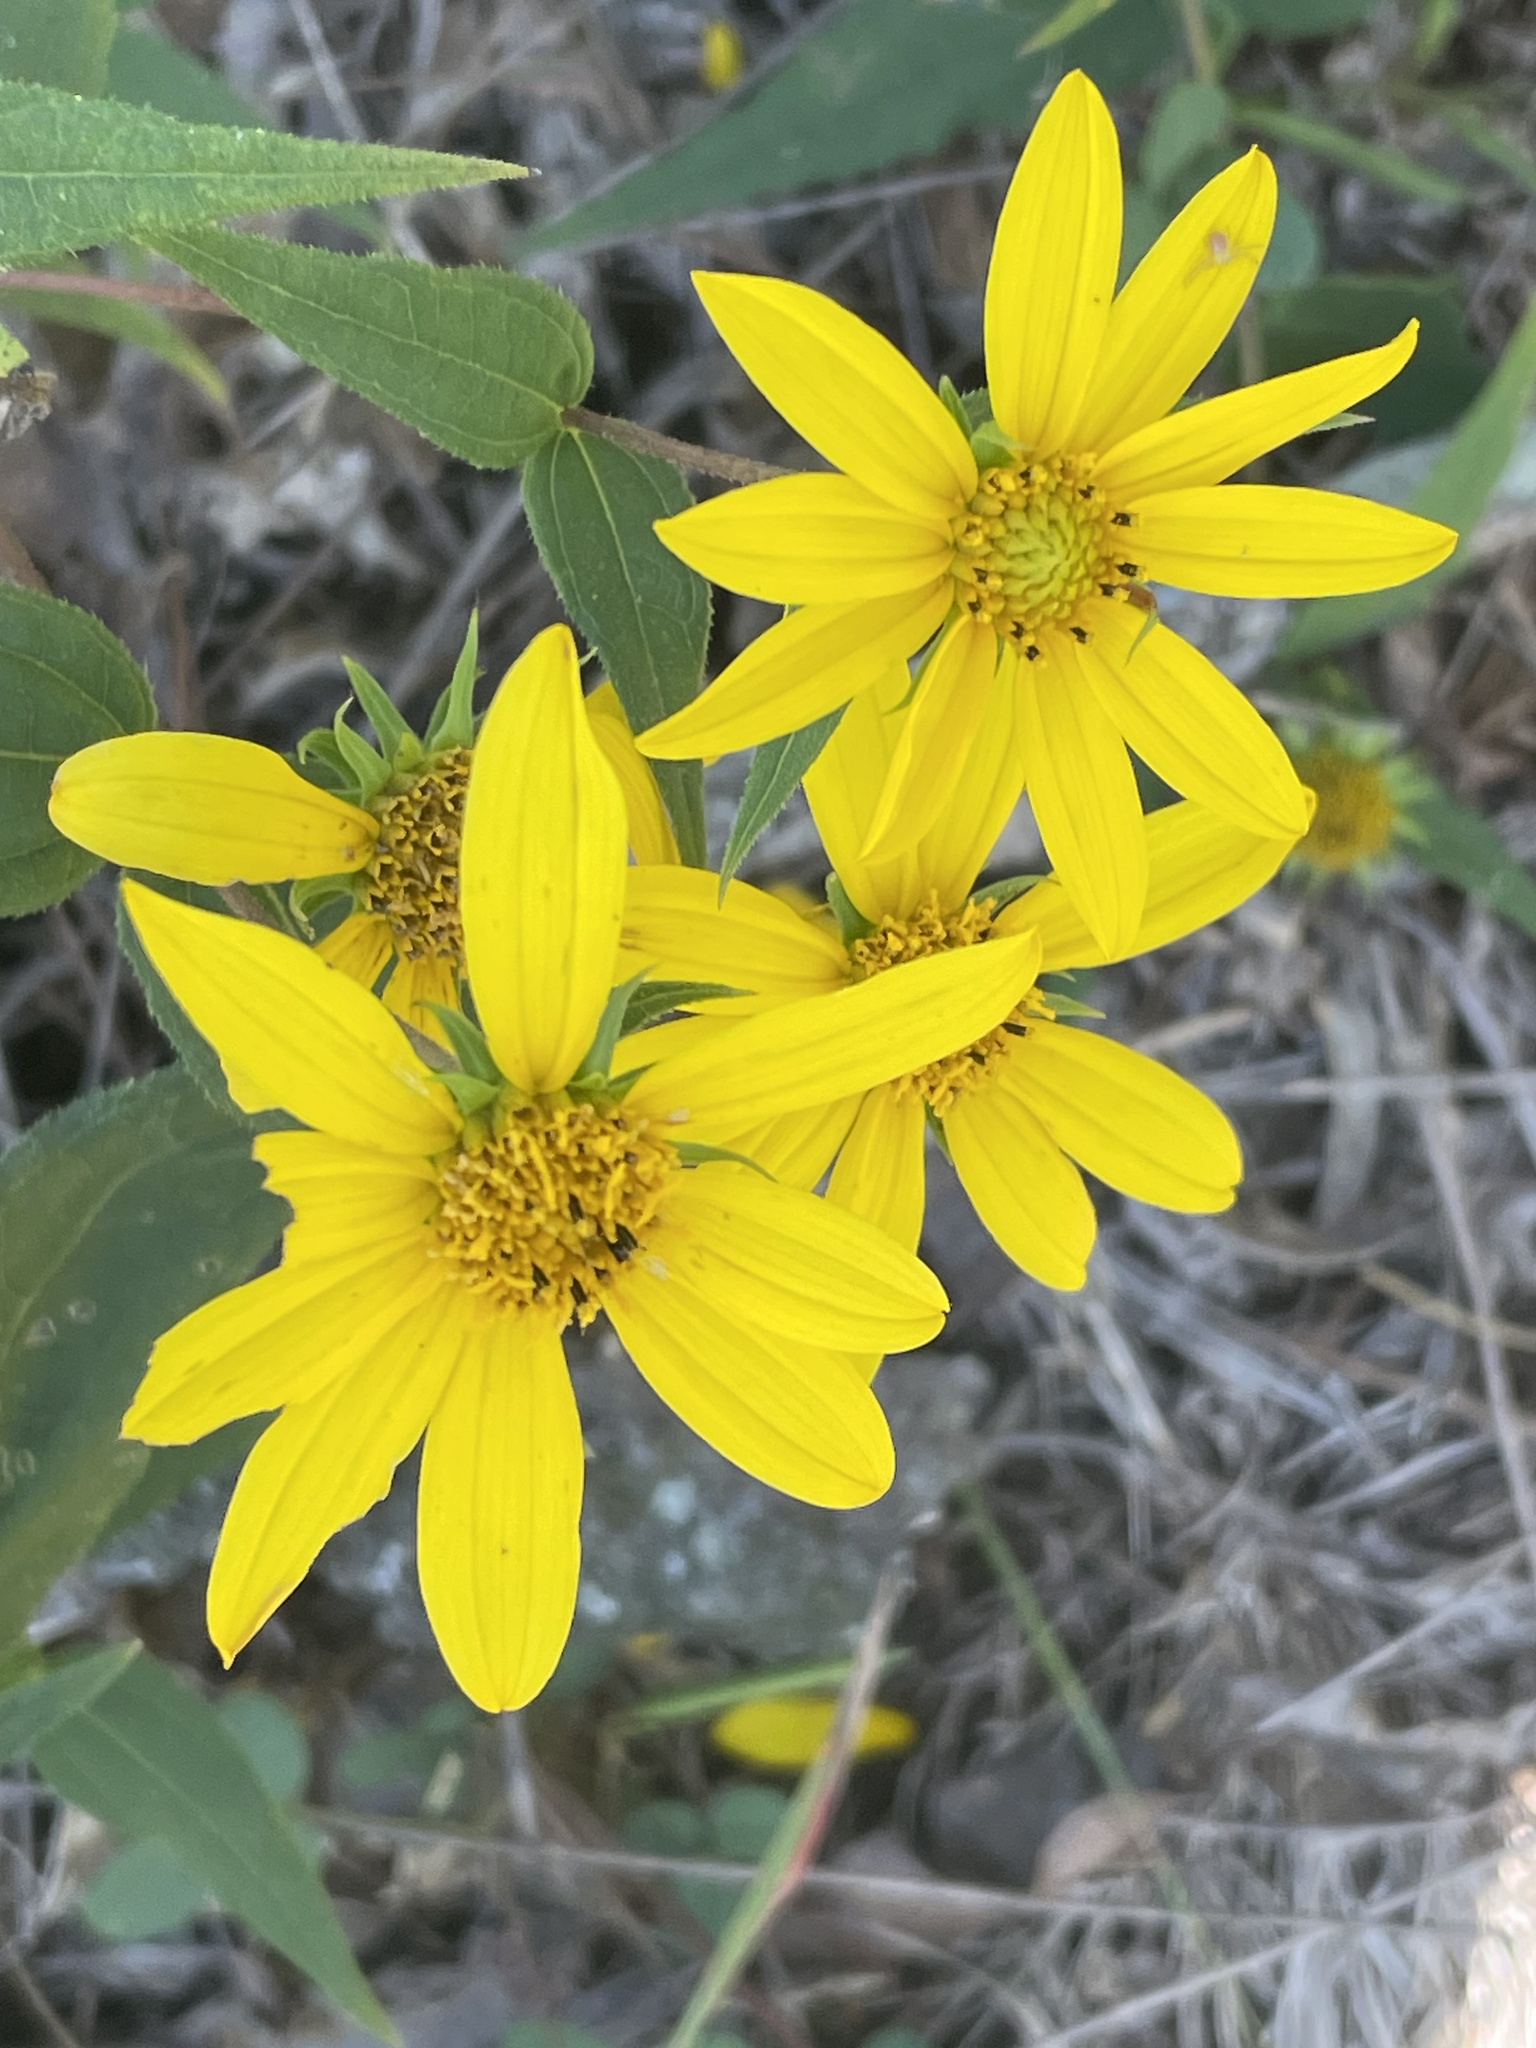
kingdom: Plantae
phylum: Tracheophyta
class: Magnoliopsida
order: Asterales
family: Asteraceae
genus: Helianthus
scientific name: Helianthus divaricatus
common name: Divergent sunflower
